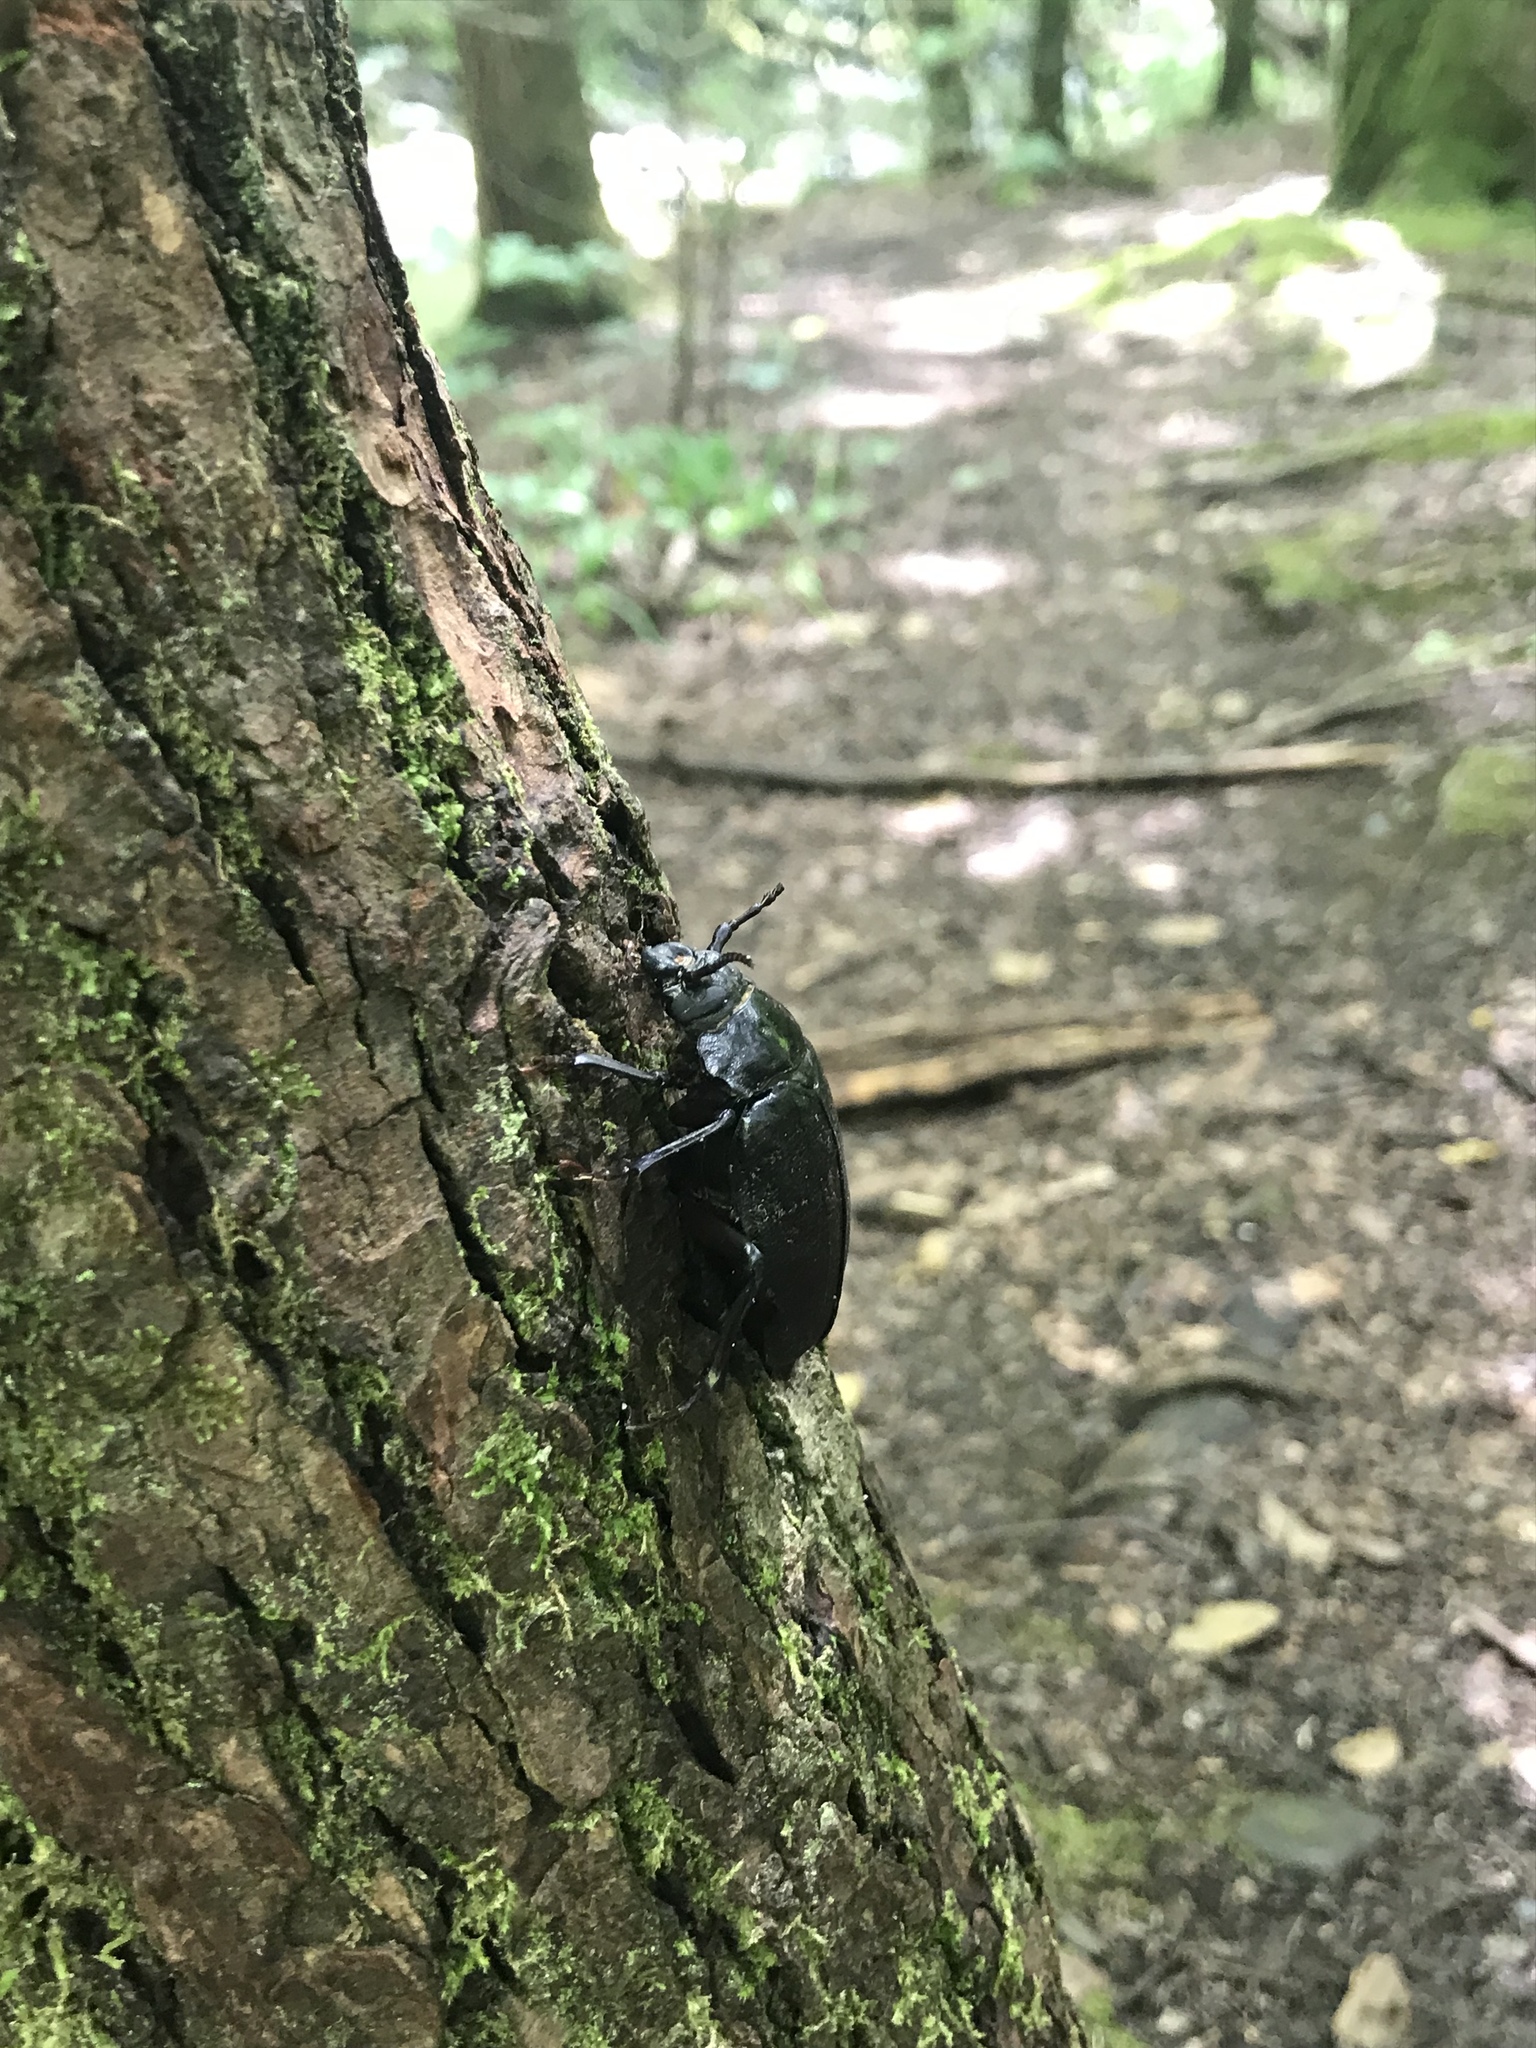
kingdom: Animalia
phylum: Arthropoda
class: Insecta
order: Coleoptera
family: Cerambycidae
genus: Prionus
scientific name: Prionus laticollis
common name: Broad necked prionus
